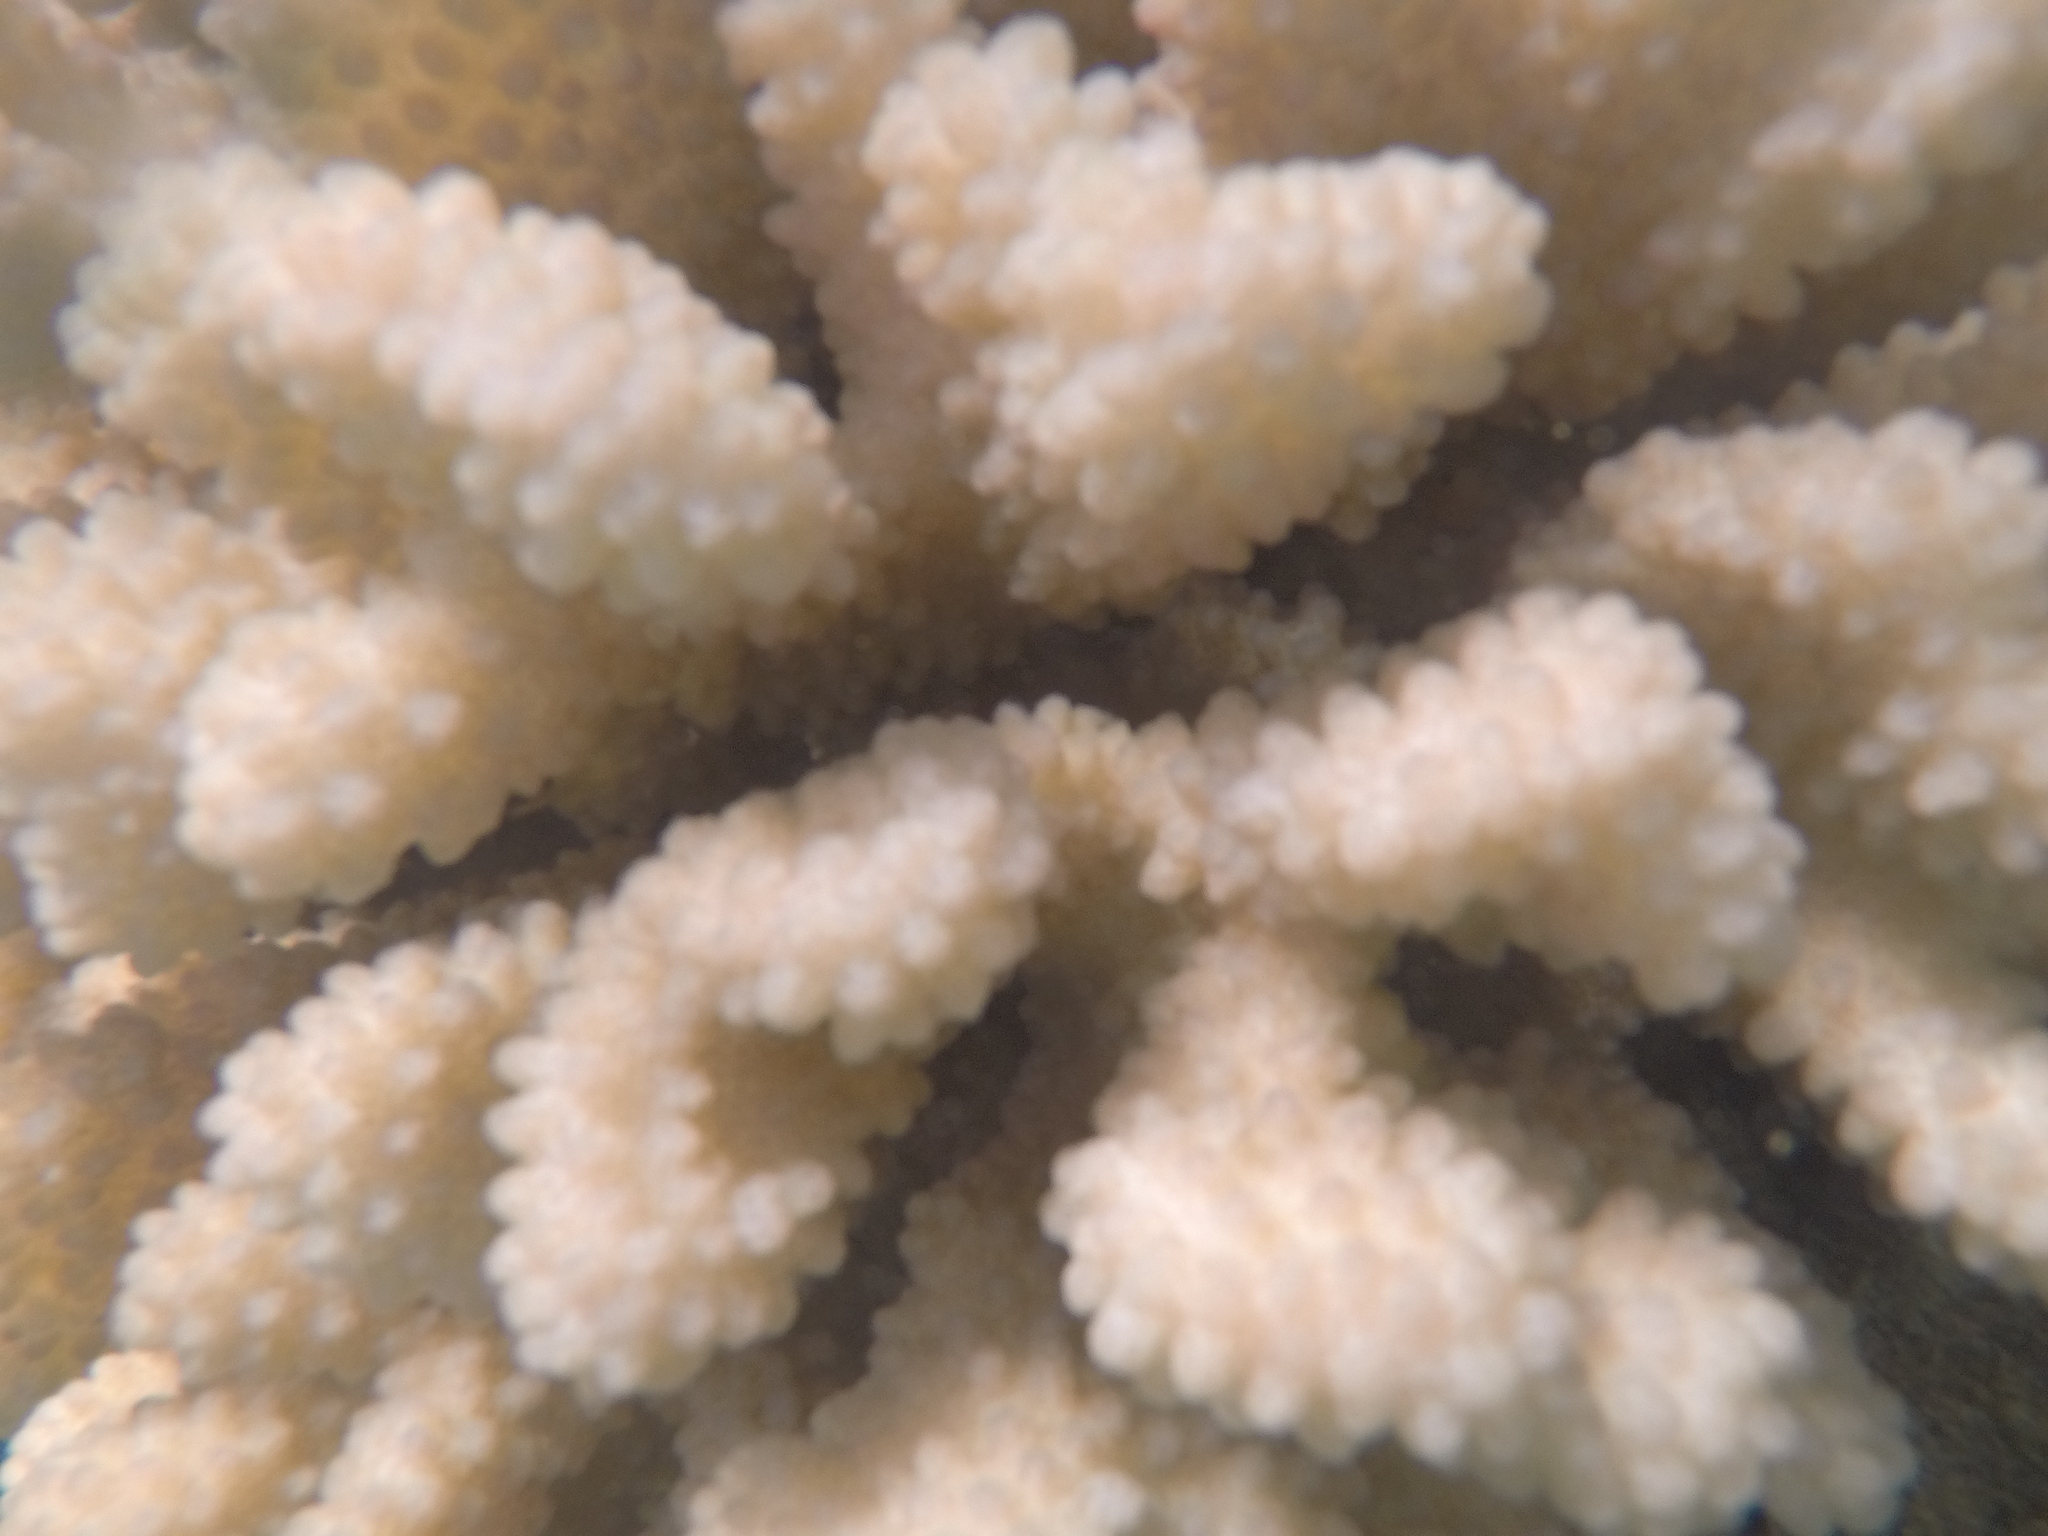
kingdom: Animalia
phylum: Cnidaria
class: Anthozoa
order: Scleractinia
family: Pocilloporidae
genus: Pocillopora
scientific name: Pocillopora verrucosa
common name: Cauliflower coral
